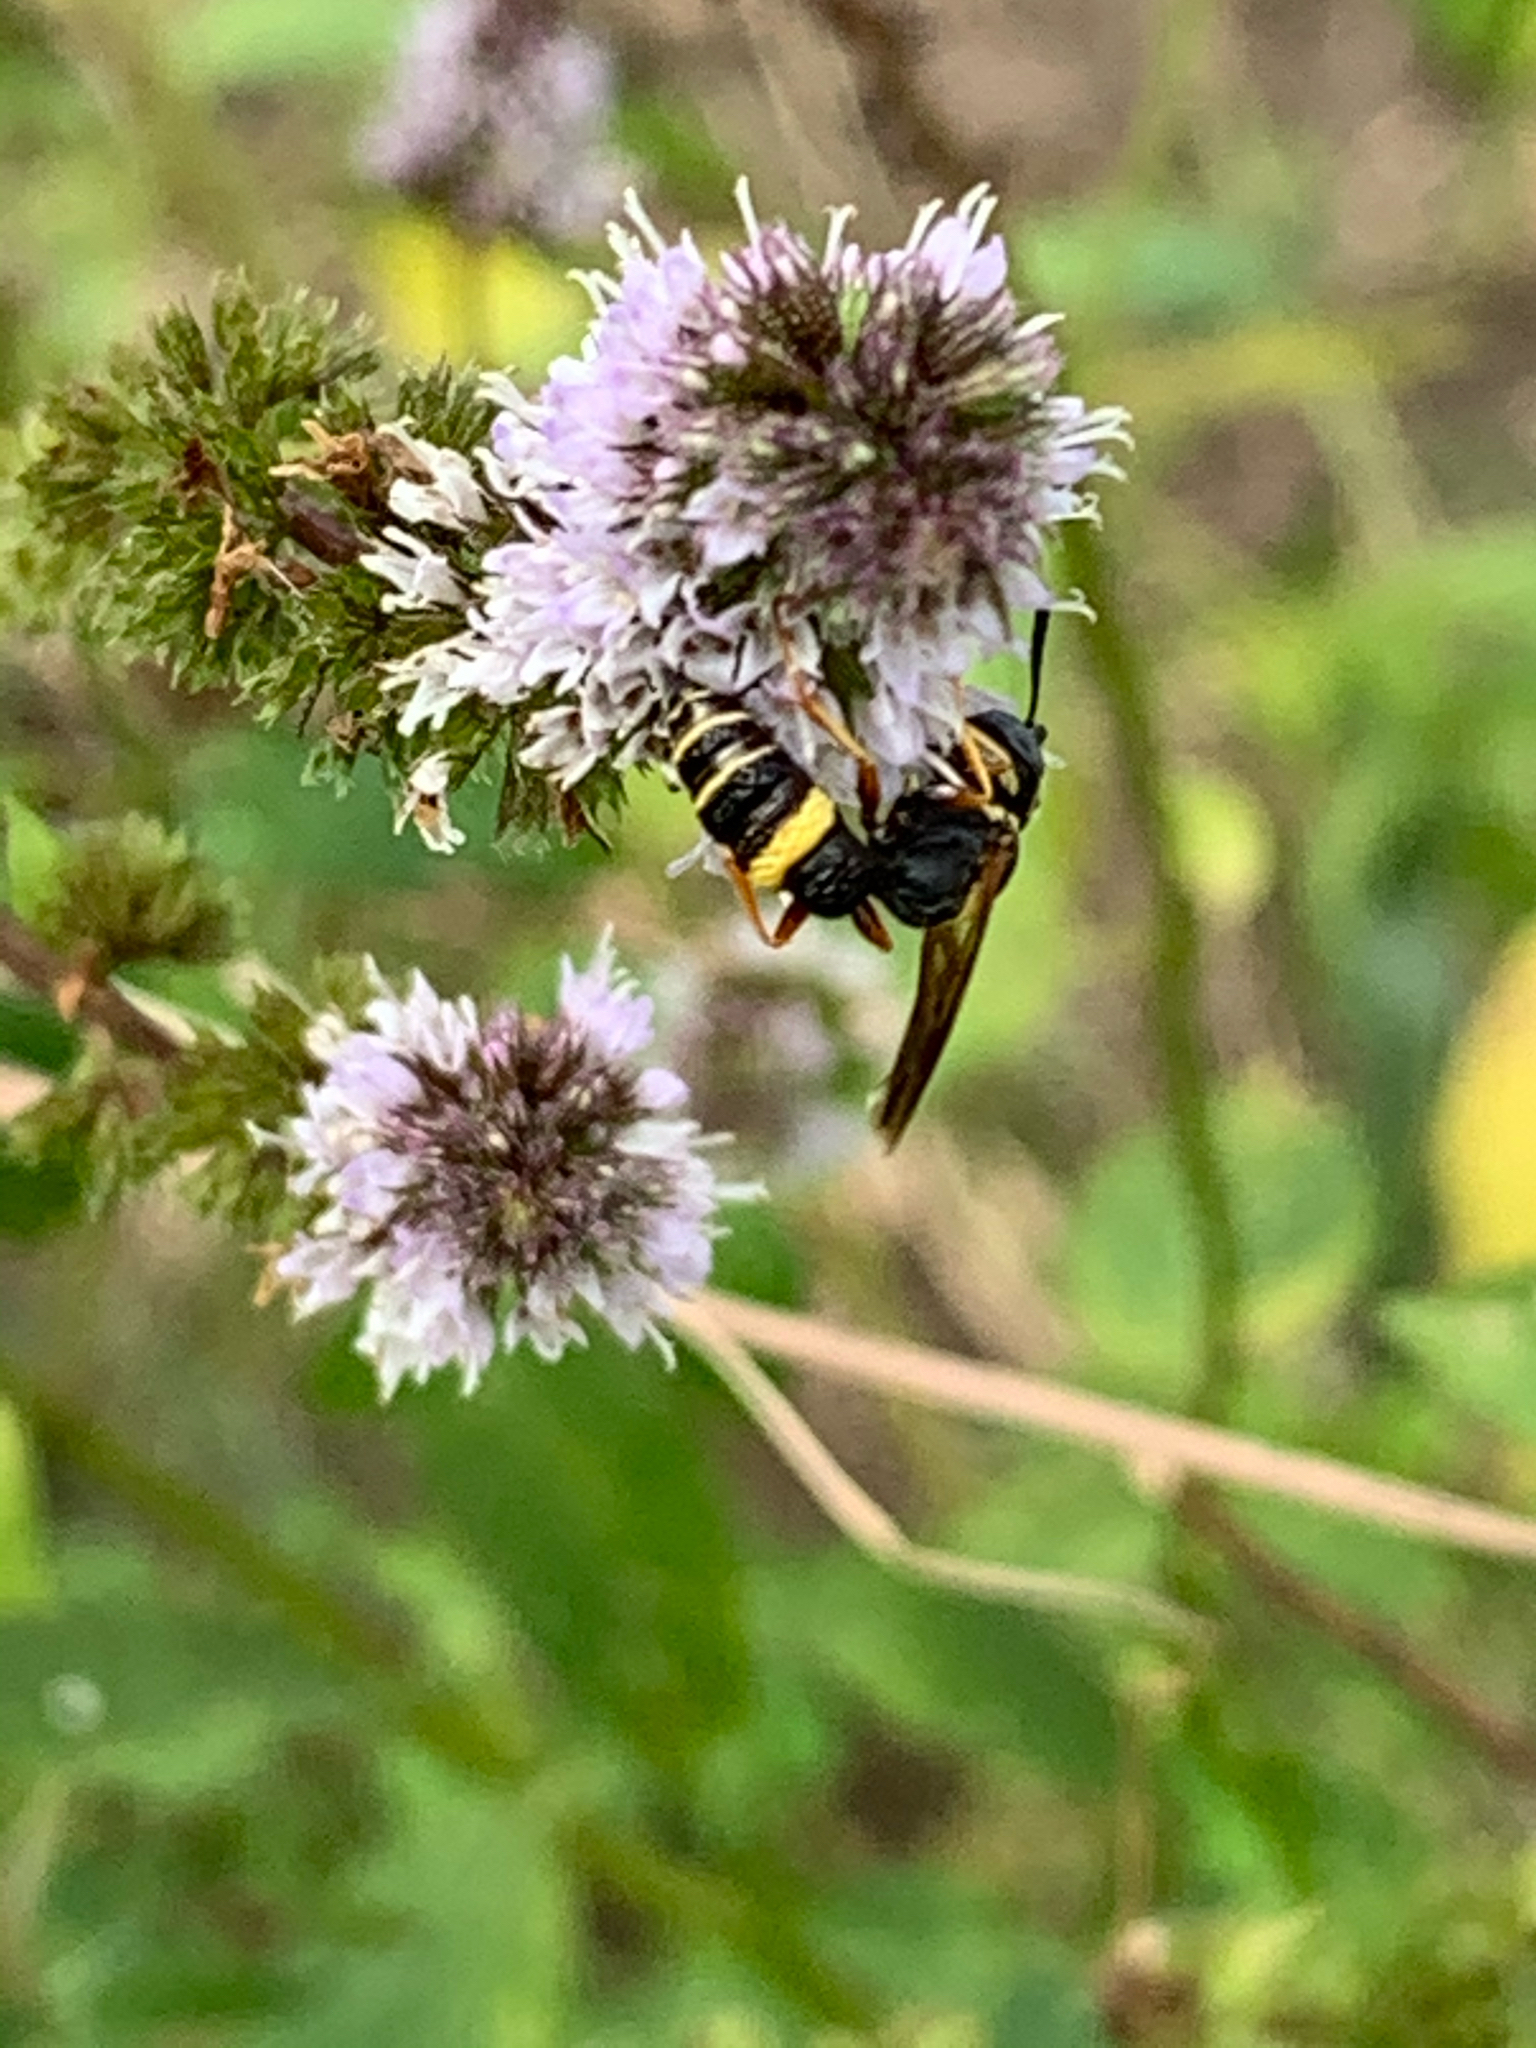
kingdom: Animalia
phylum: Arthropoda
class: Insecta
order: Hymenoptera
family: Crabronidae
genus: Philanthus
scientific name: Philanthus gibbosus
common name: Humped beewolf
